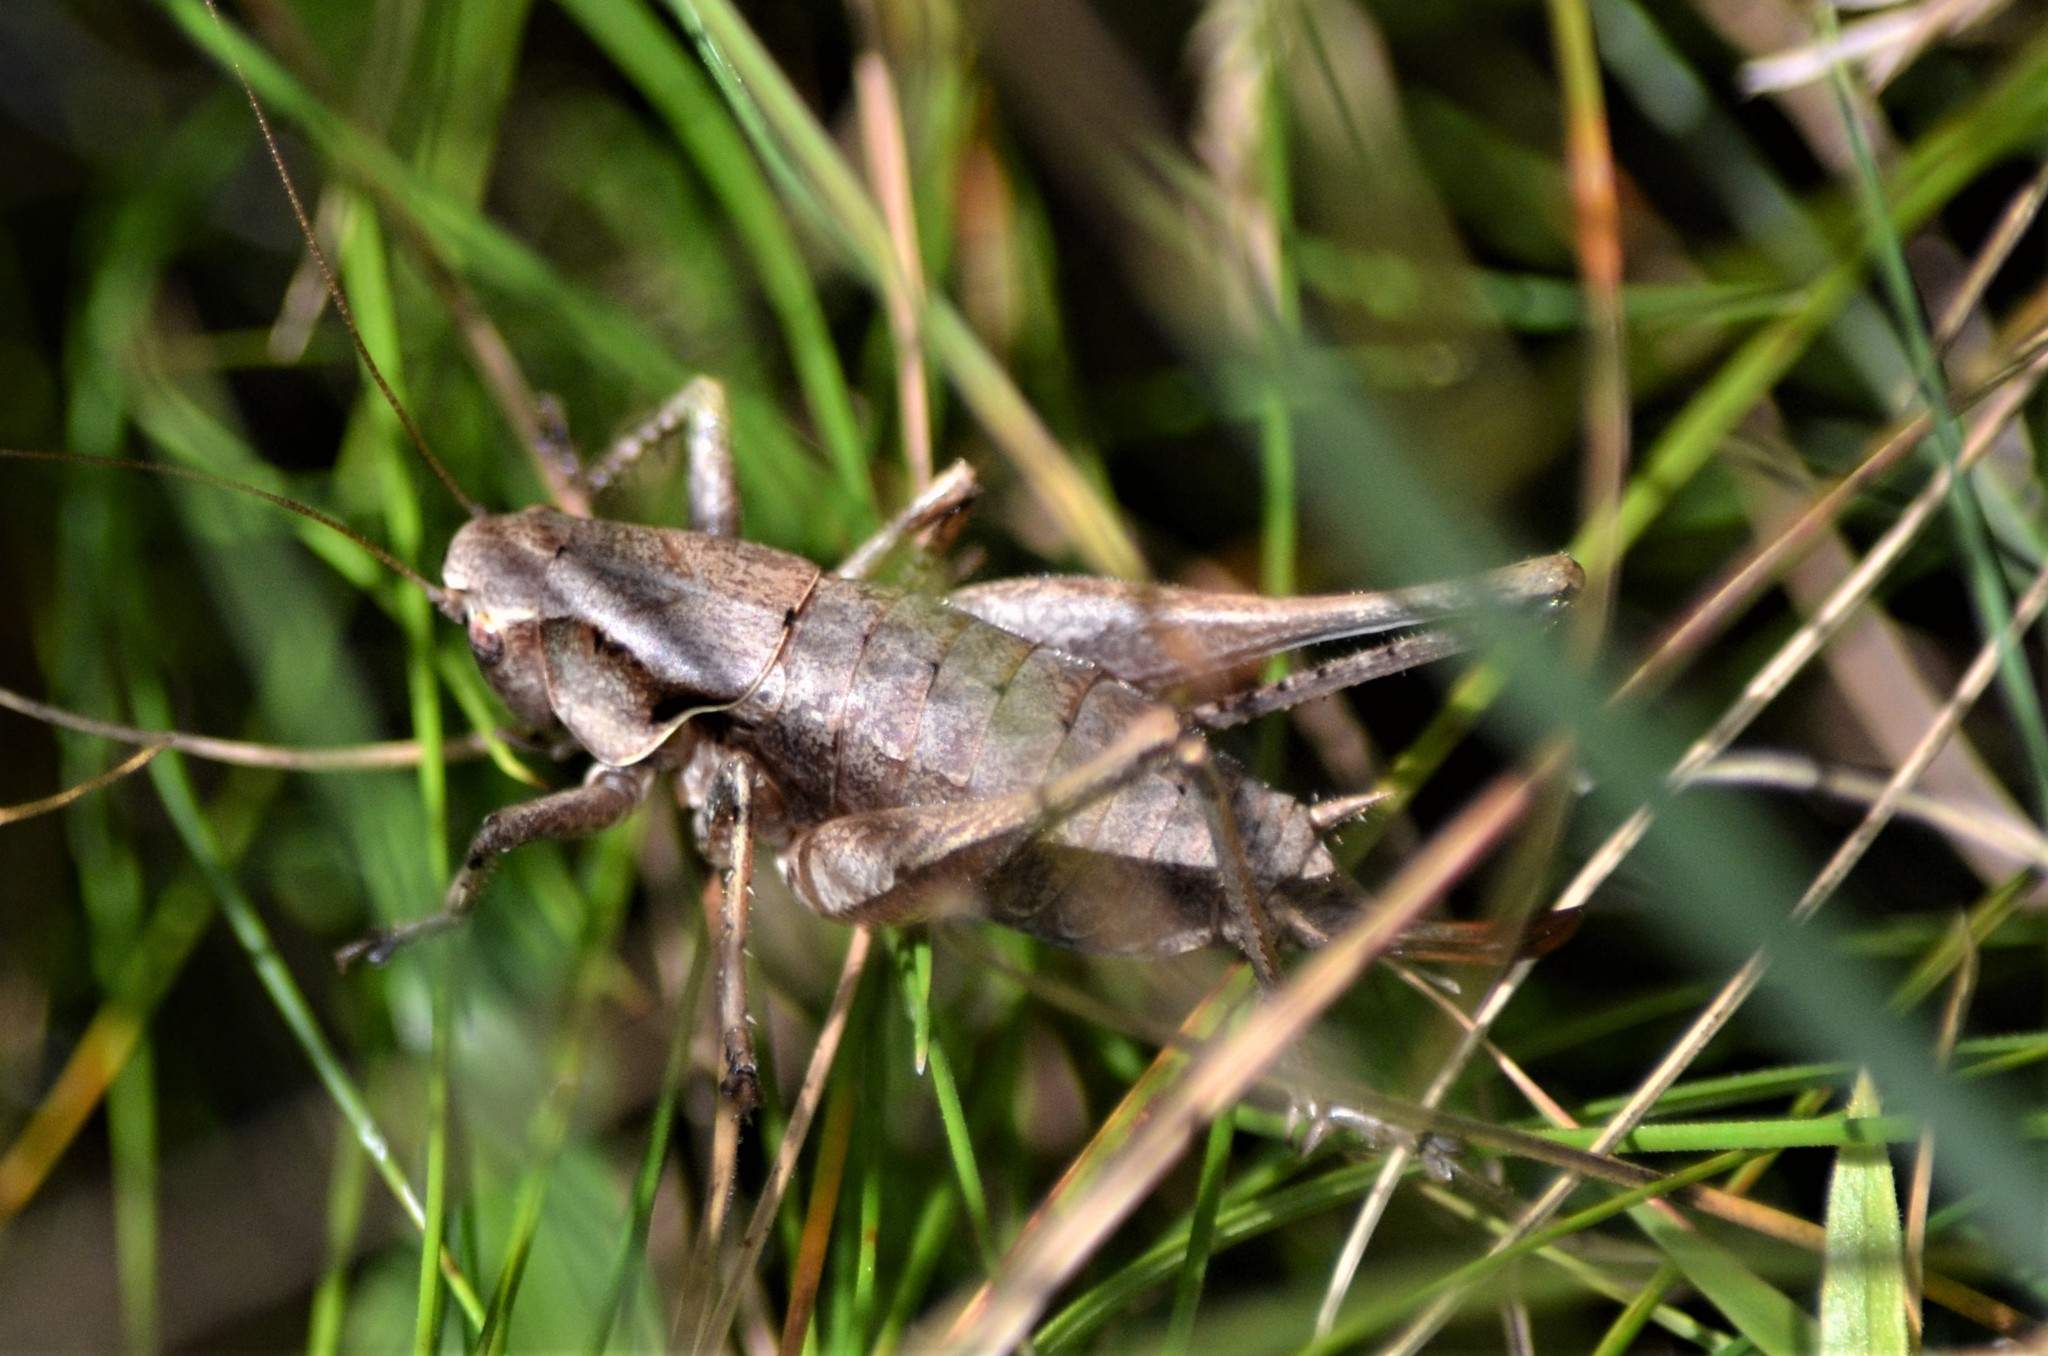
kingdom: Animalia
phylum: Arthropoda
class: Insecta
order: Orthoptera
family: Tettigoniidae
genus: Pholidoptera
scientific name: Pholidoptera griseoaptera
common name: Dark bush-cricket
